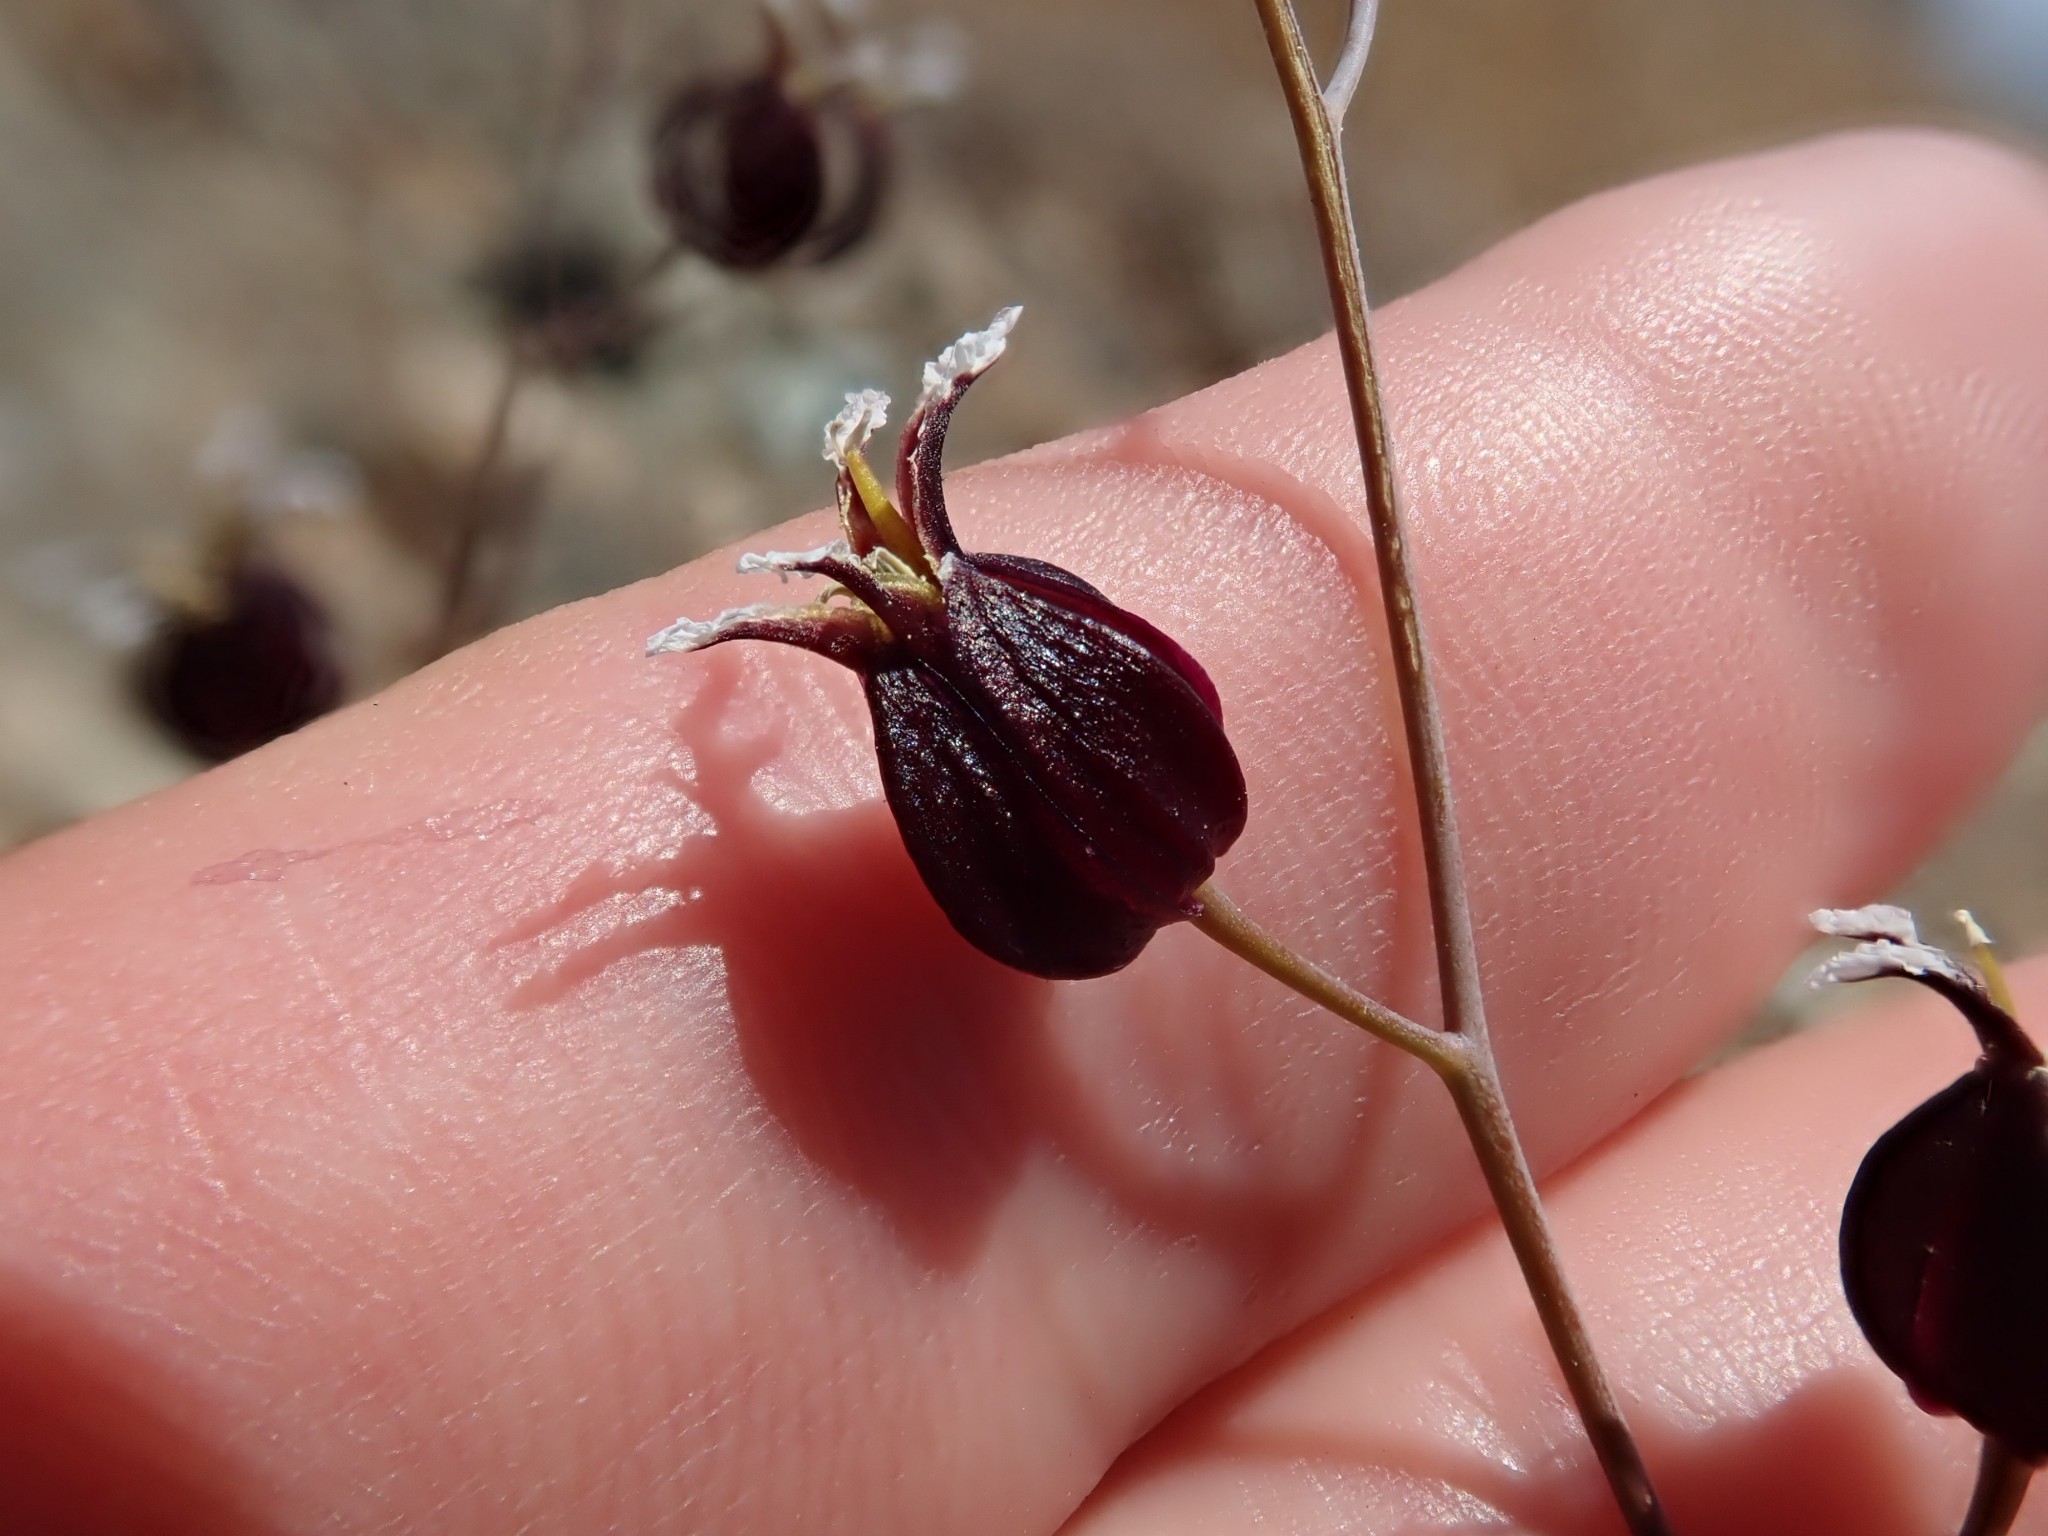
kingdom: Plantae
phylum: Tracheophyta
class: Magnoliopsida
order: Brassicales
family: Brassicaceae
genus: Streptanthus
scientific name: Streptanthus glandulosus
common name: Jewel-flower
